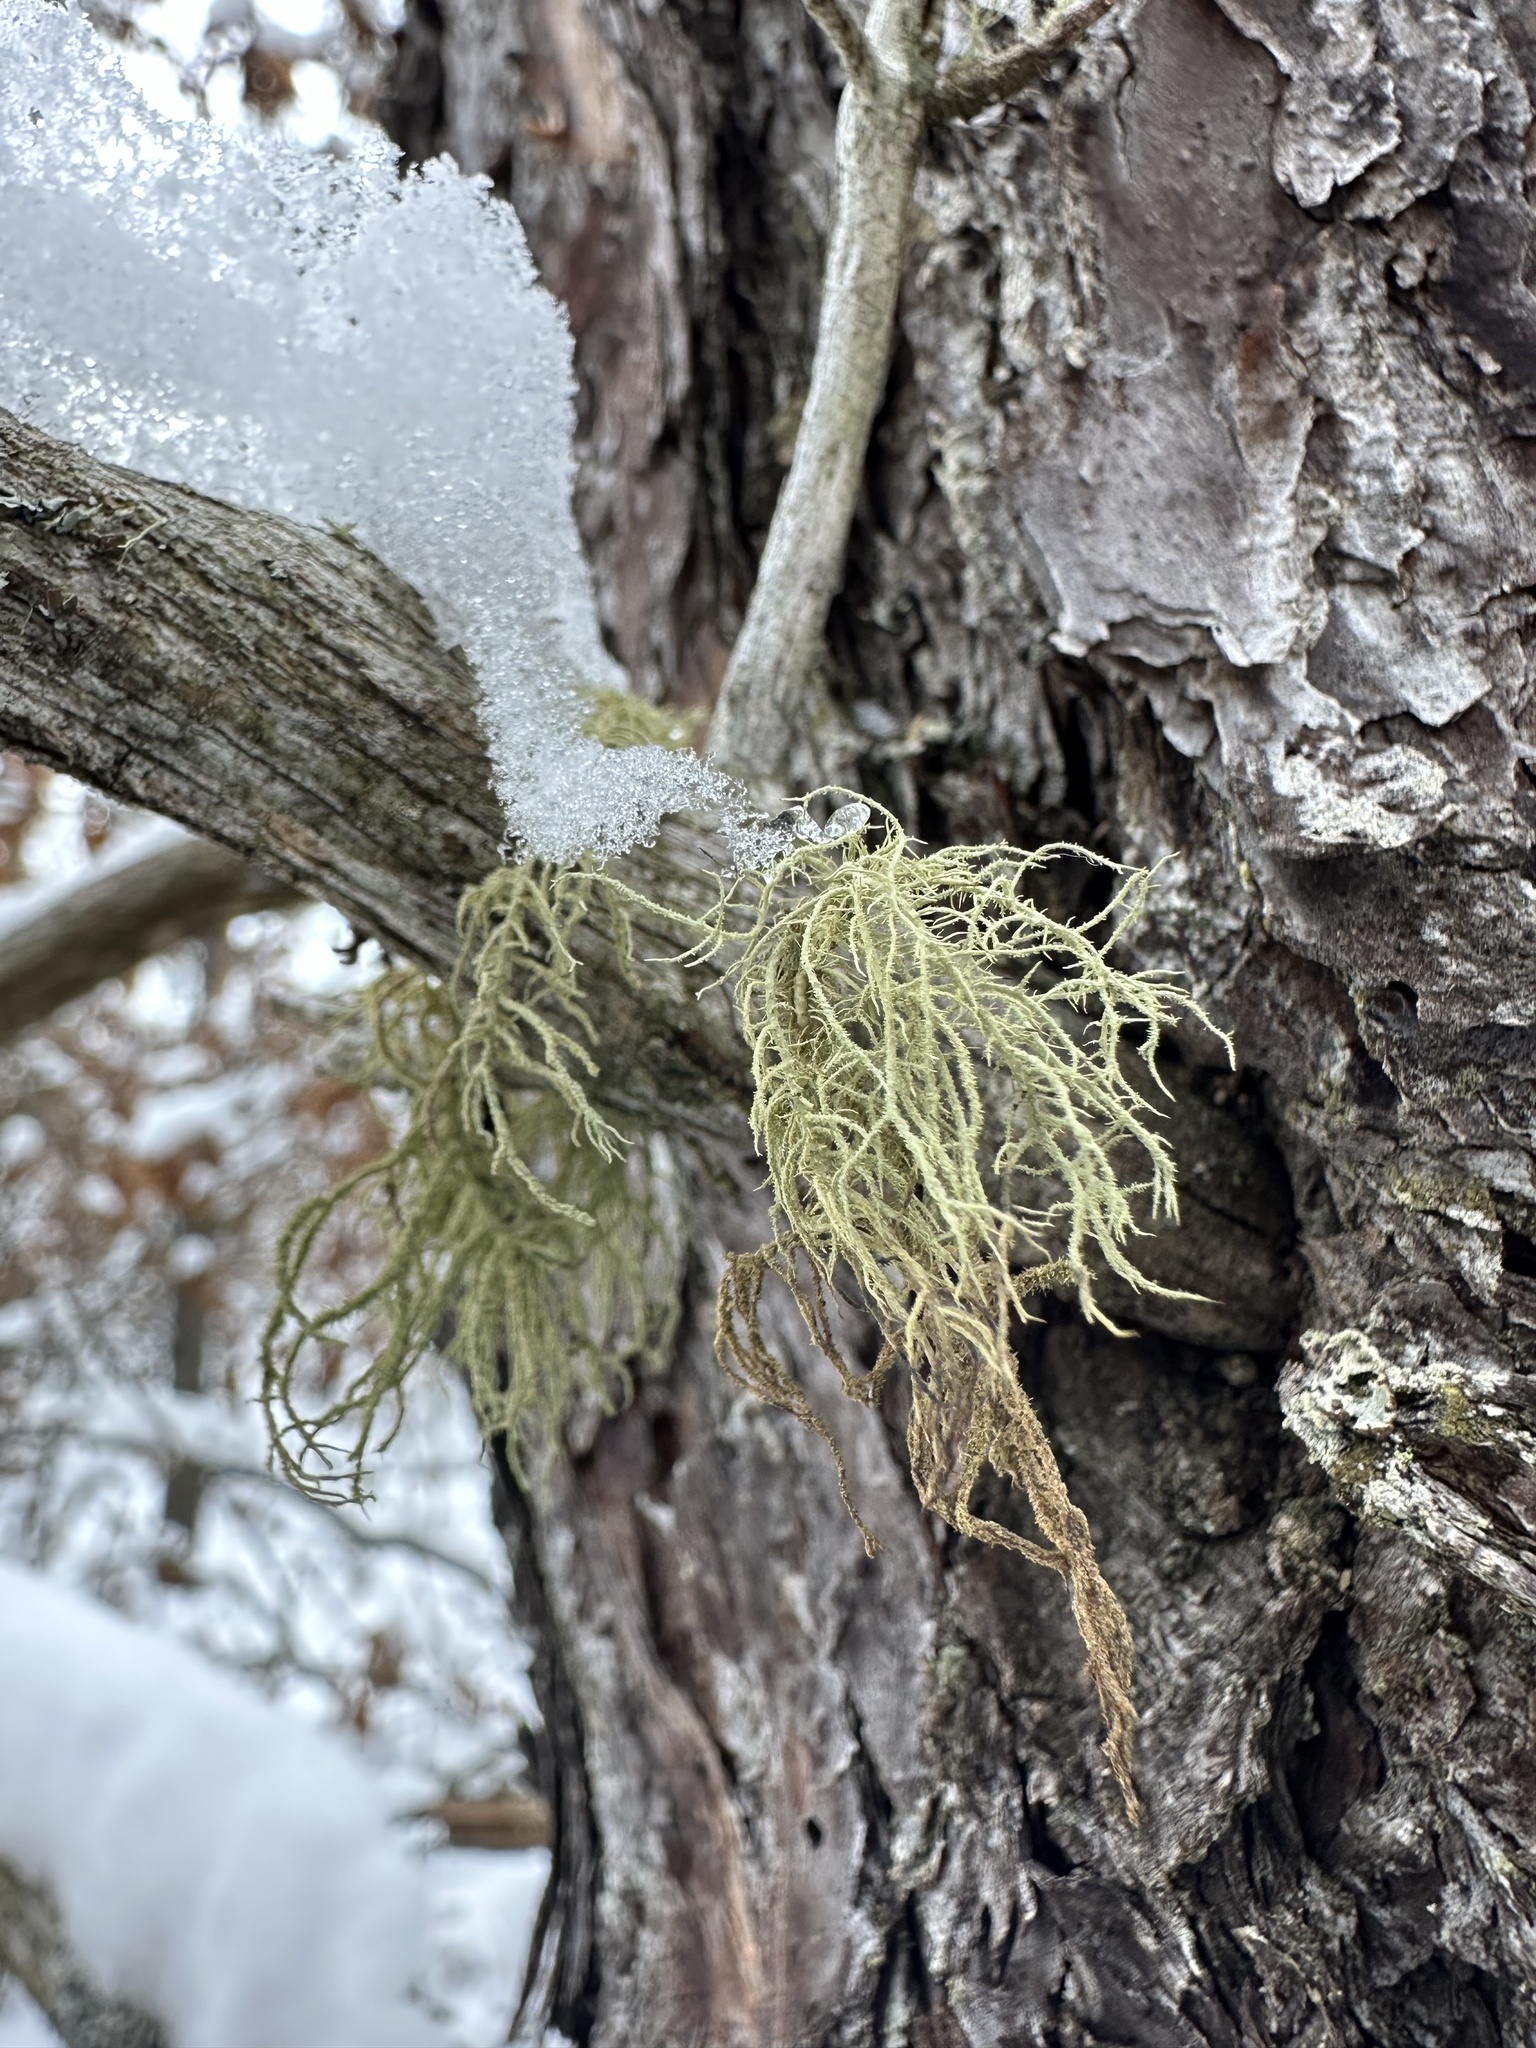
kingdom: Fungi
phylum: Ascomycota
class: Lecanoromycetes
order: Lecanorales
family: Parmeliaceae
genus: Evernia
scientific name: Evernia mesomorpha
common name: Boreal oak moss lichen
